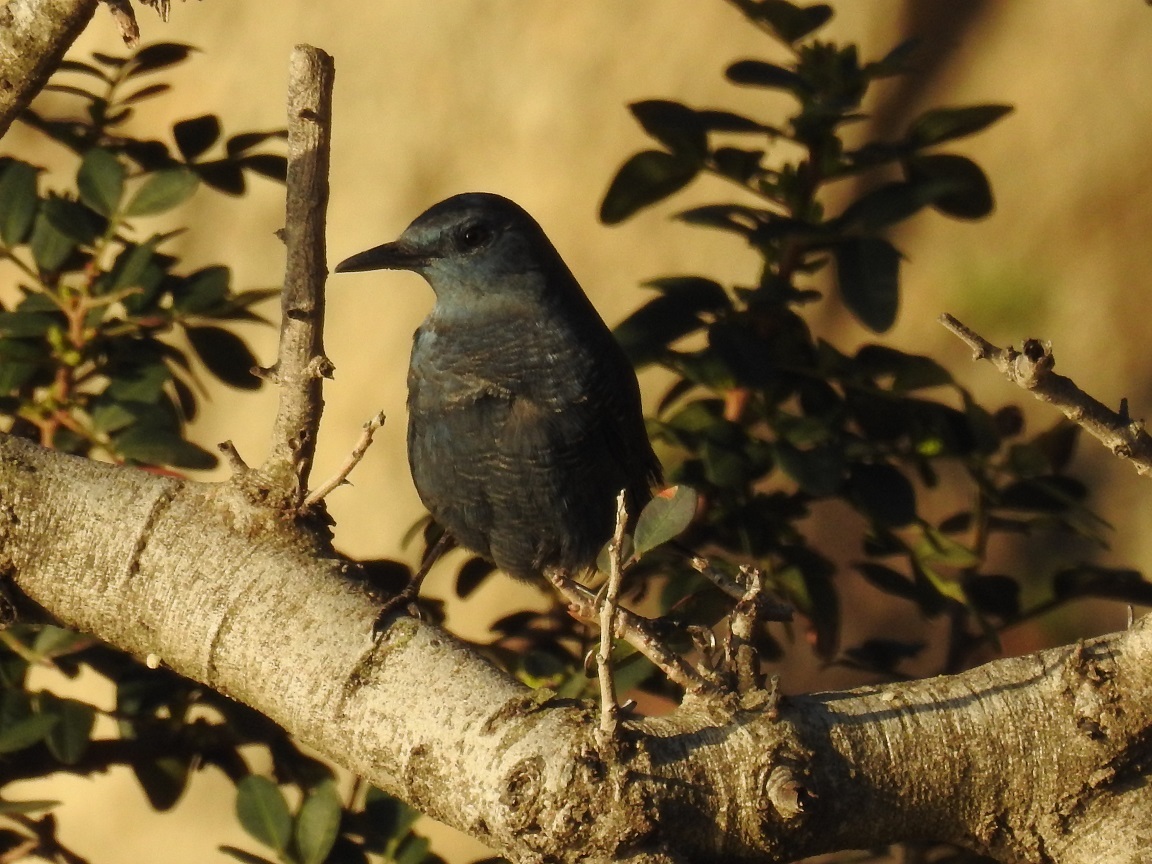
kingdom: Animalia
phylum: Chordata
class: Aves
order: Passeriformes
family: Muscicapidae
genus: Monticola
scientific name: Monticola solitarius
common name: Blue rock thrush
